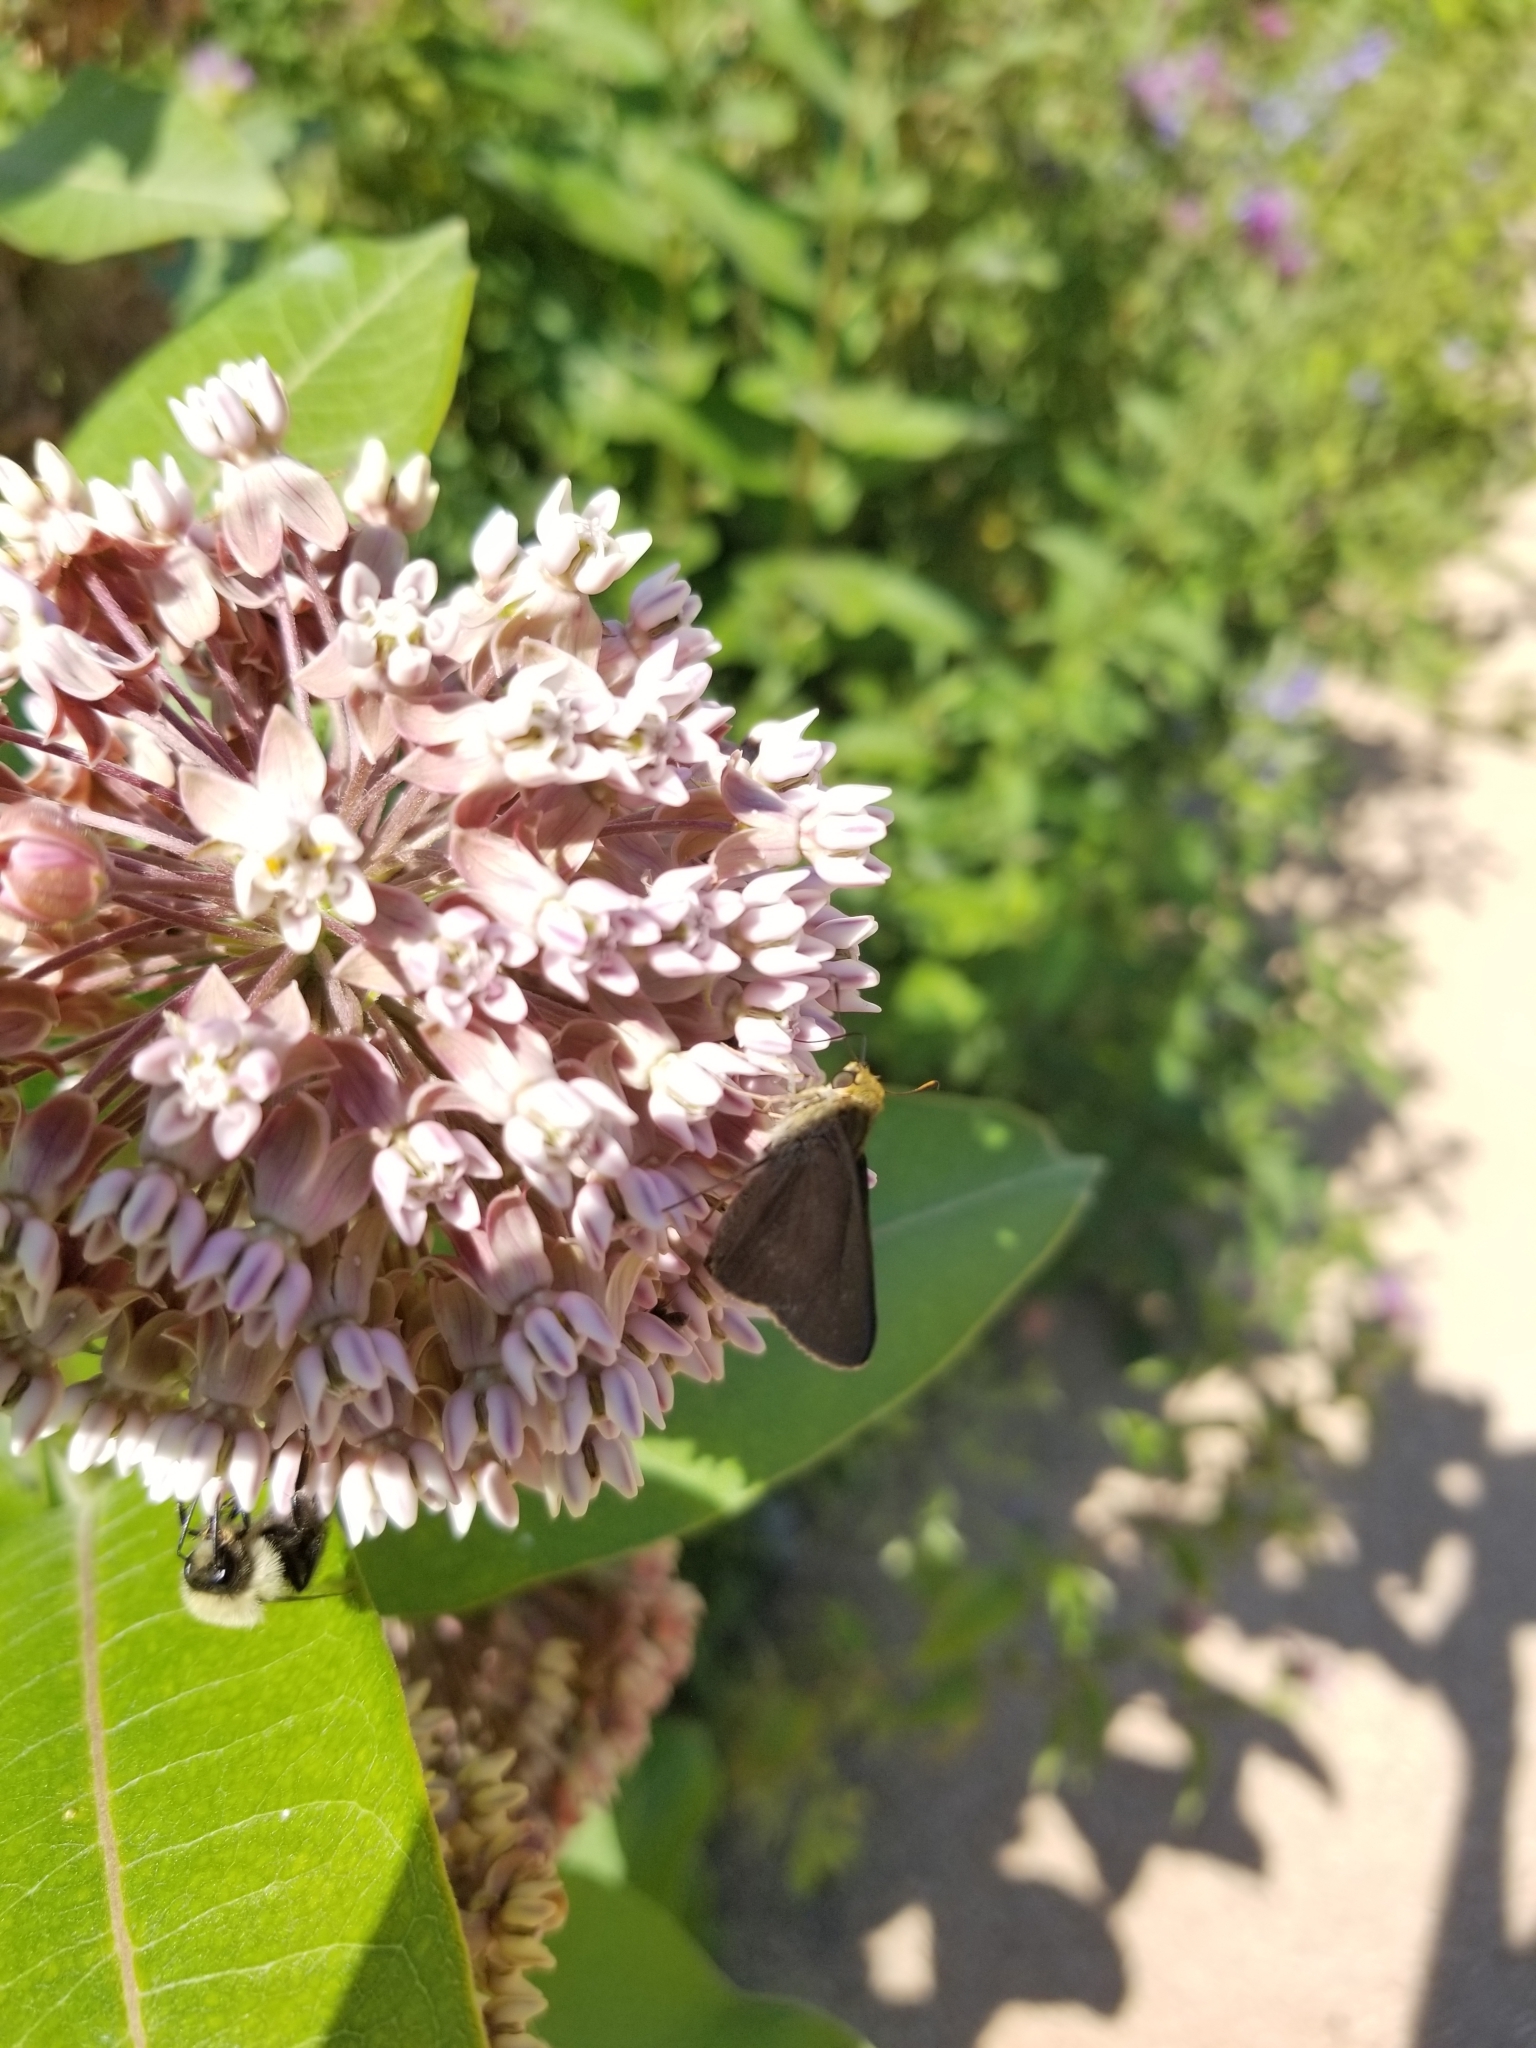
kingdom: Animalia
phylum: Arthropoda
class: Insecta
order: Lepidoptera
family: Hesperiidae
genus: Euphyes
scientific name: Euphyes vestris
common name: Dun skipper
